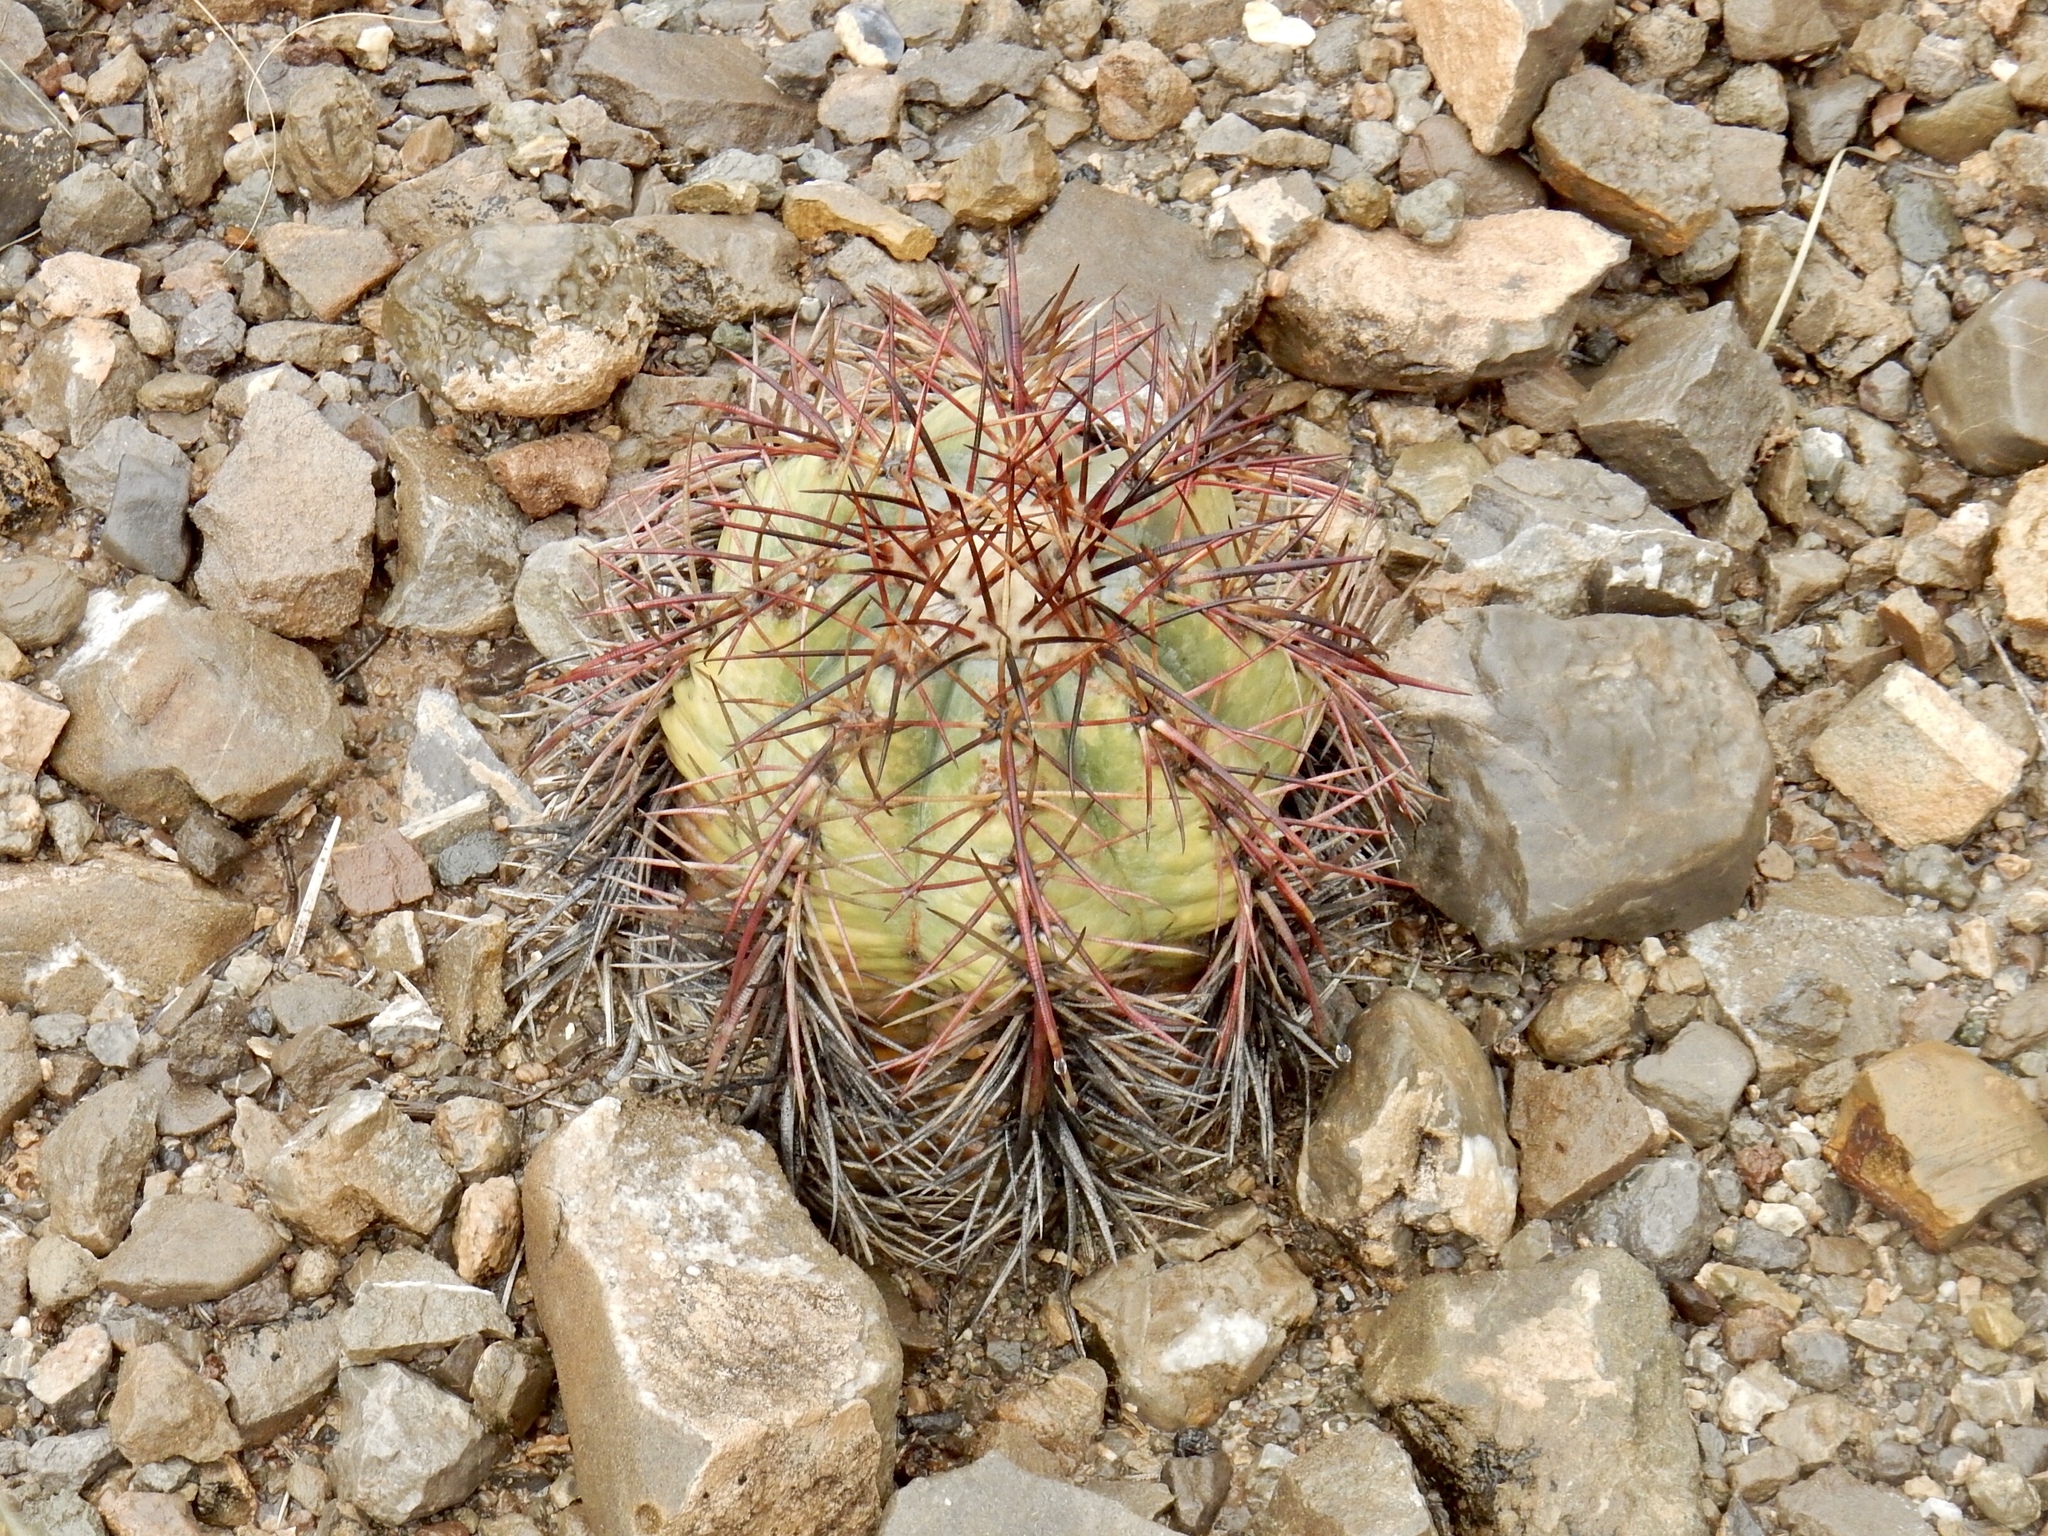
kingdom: Plantae
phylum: Tracheophyta
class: Magnoliopsida
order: Caryophyllales
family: Cactaceae
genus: Echinocactus
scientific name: Echinocactus horizonthalonius
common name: Devilshead
